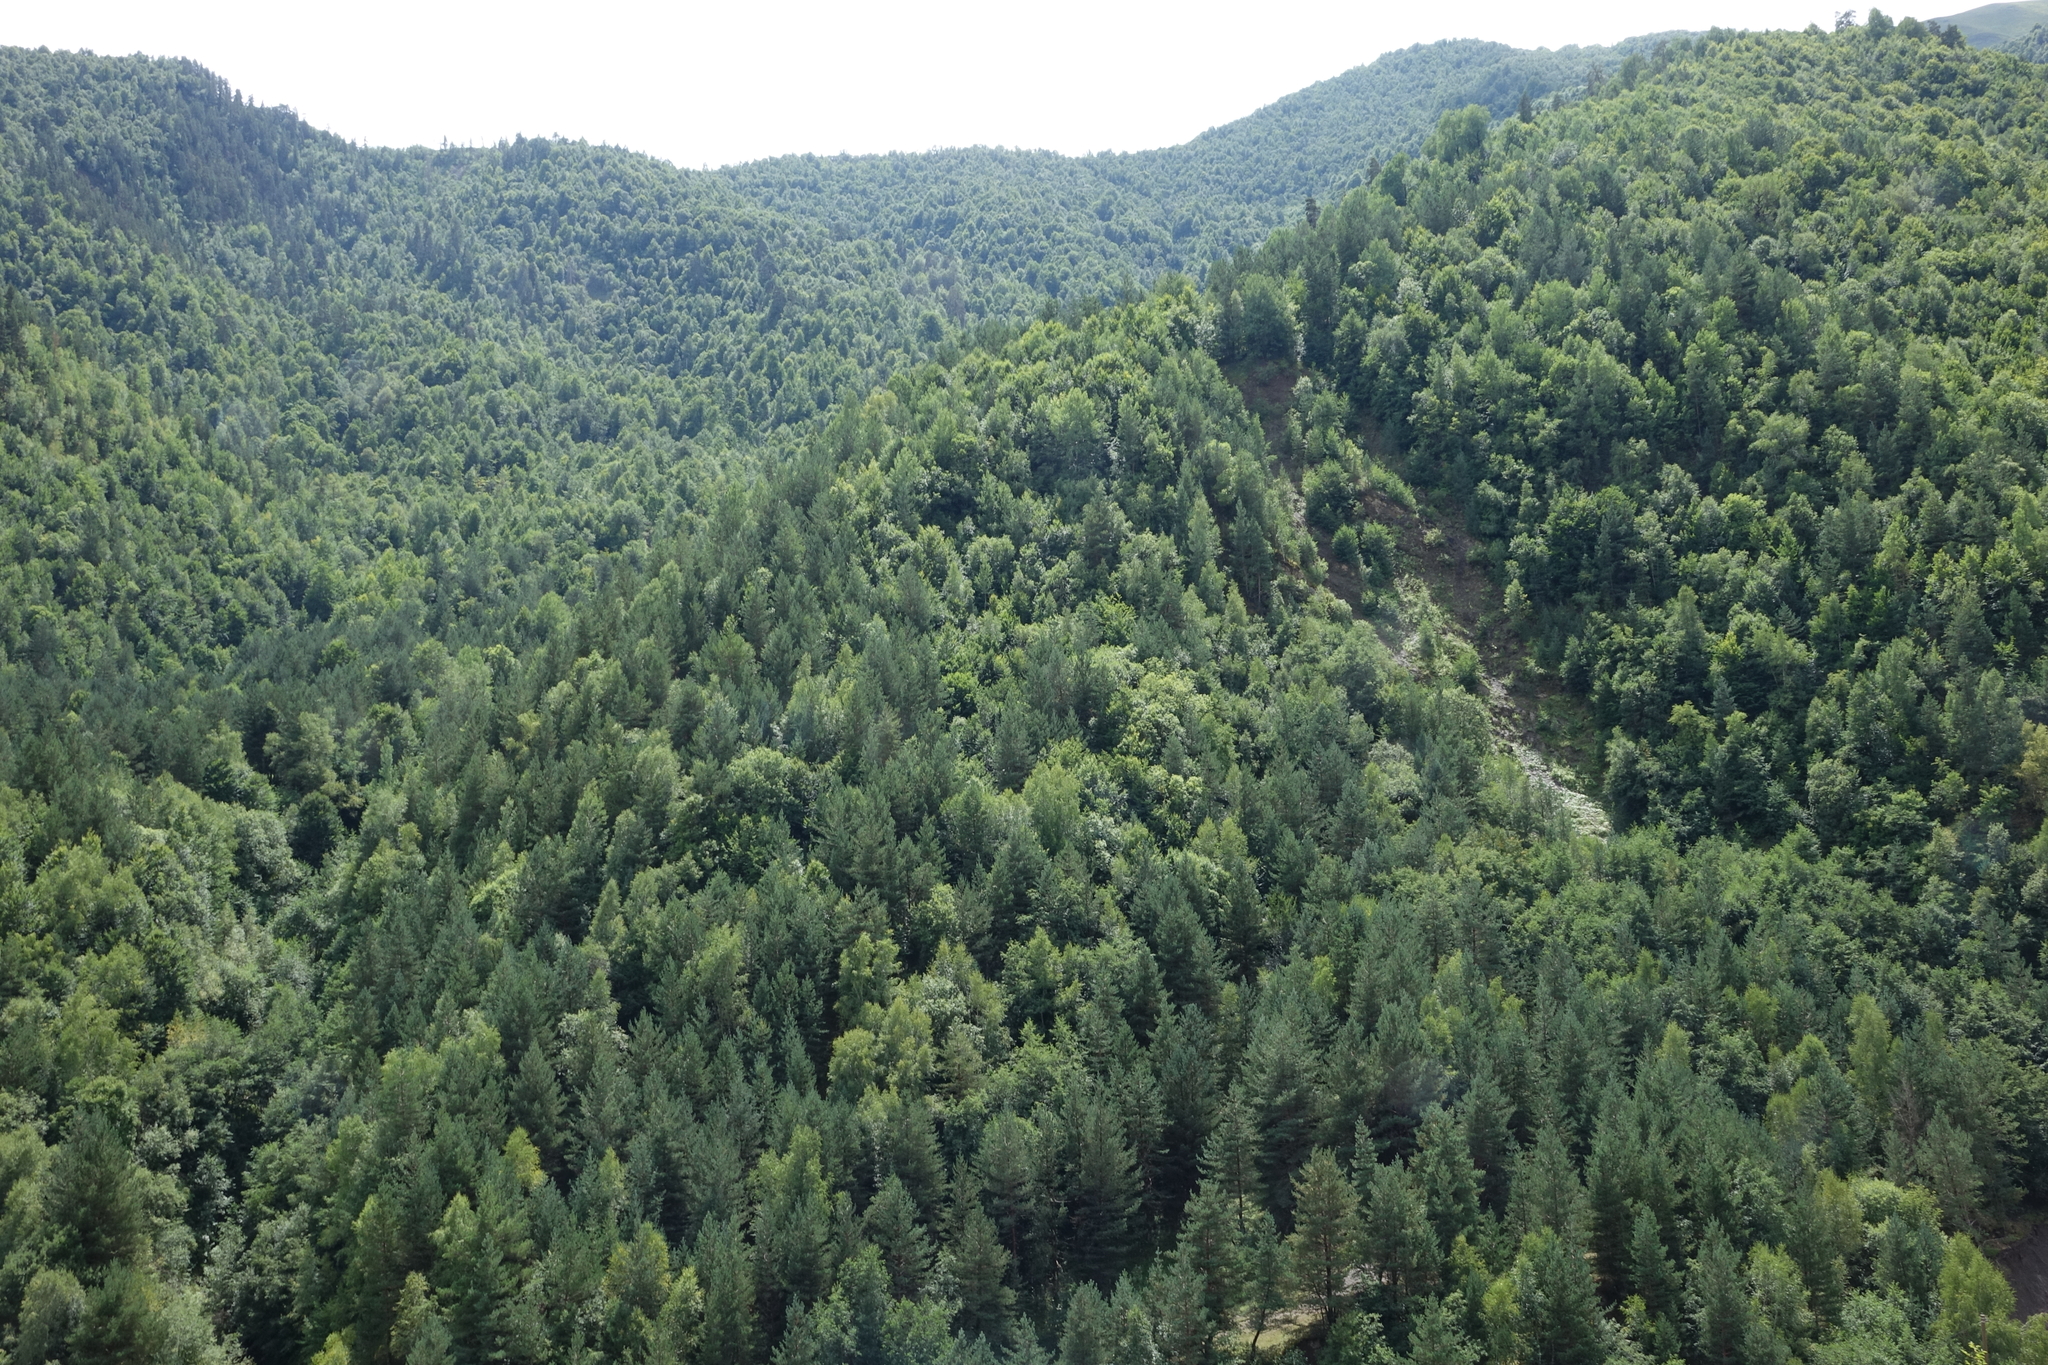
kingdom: Plantae
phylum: Tracheophyta
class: Pinopsida
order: Pinales
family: Pinaceae
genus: Pinus
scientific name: Pinus sylvestris
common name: Scots pine
